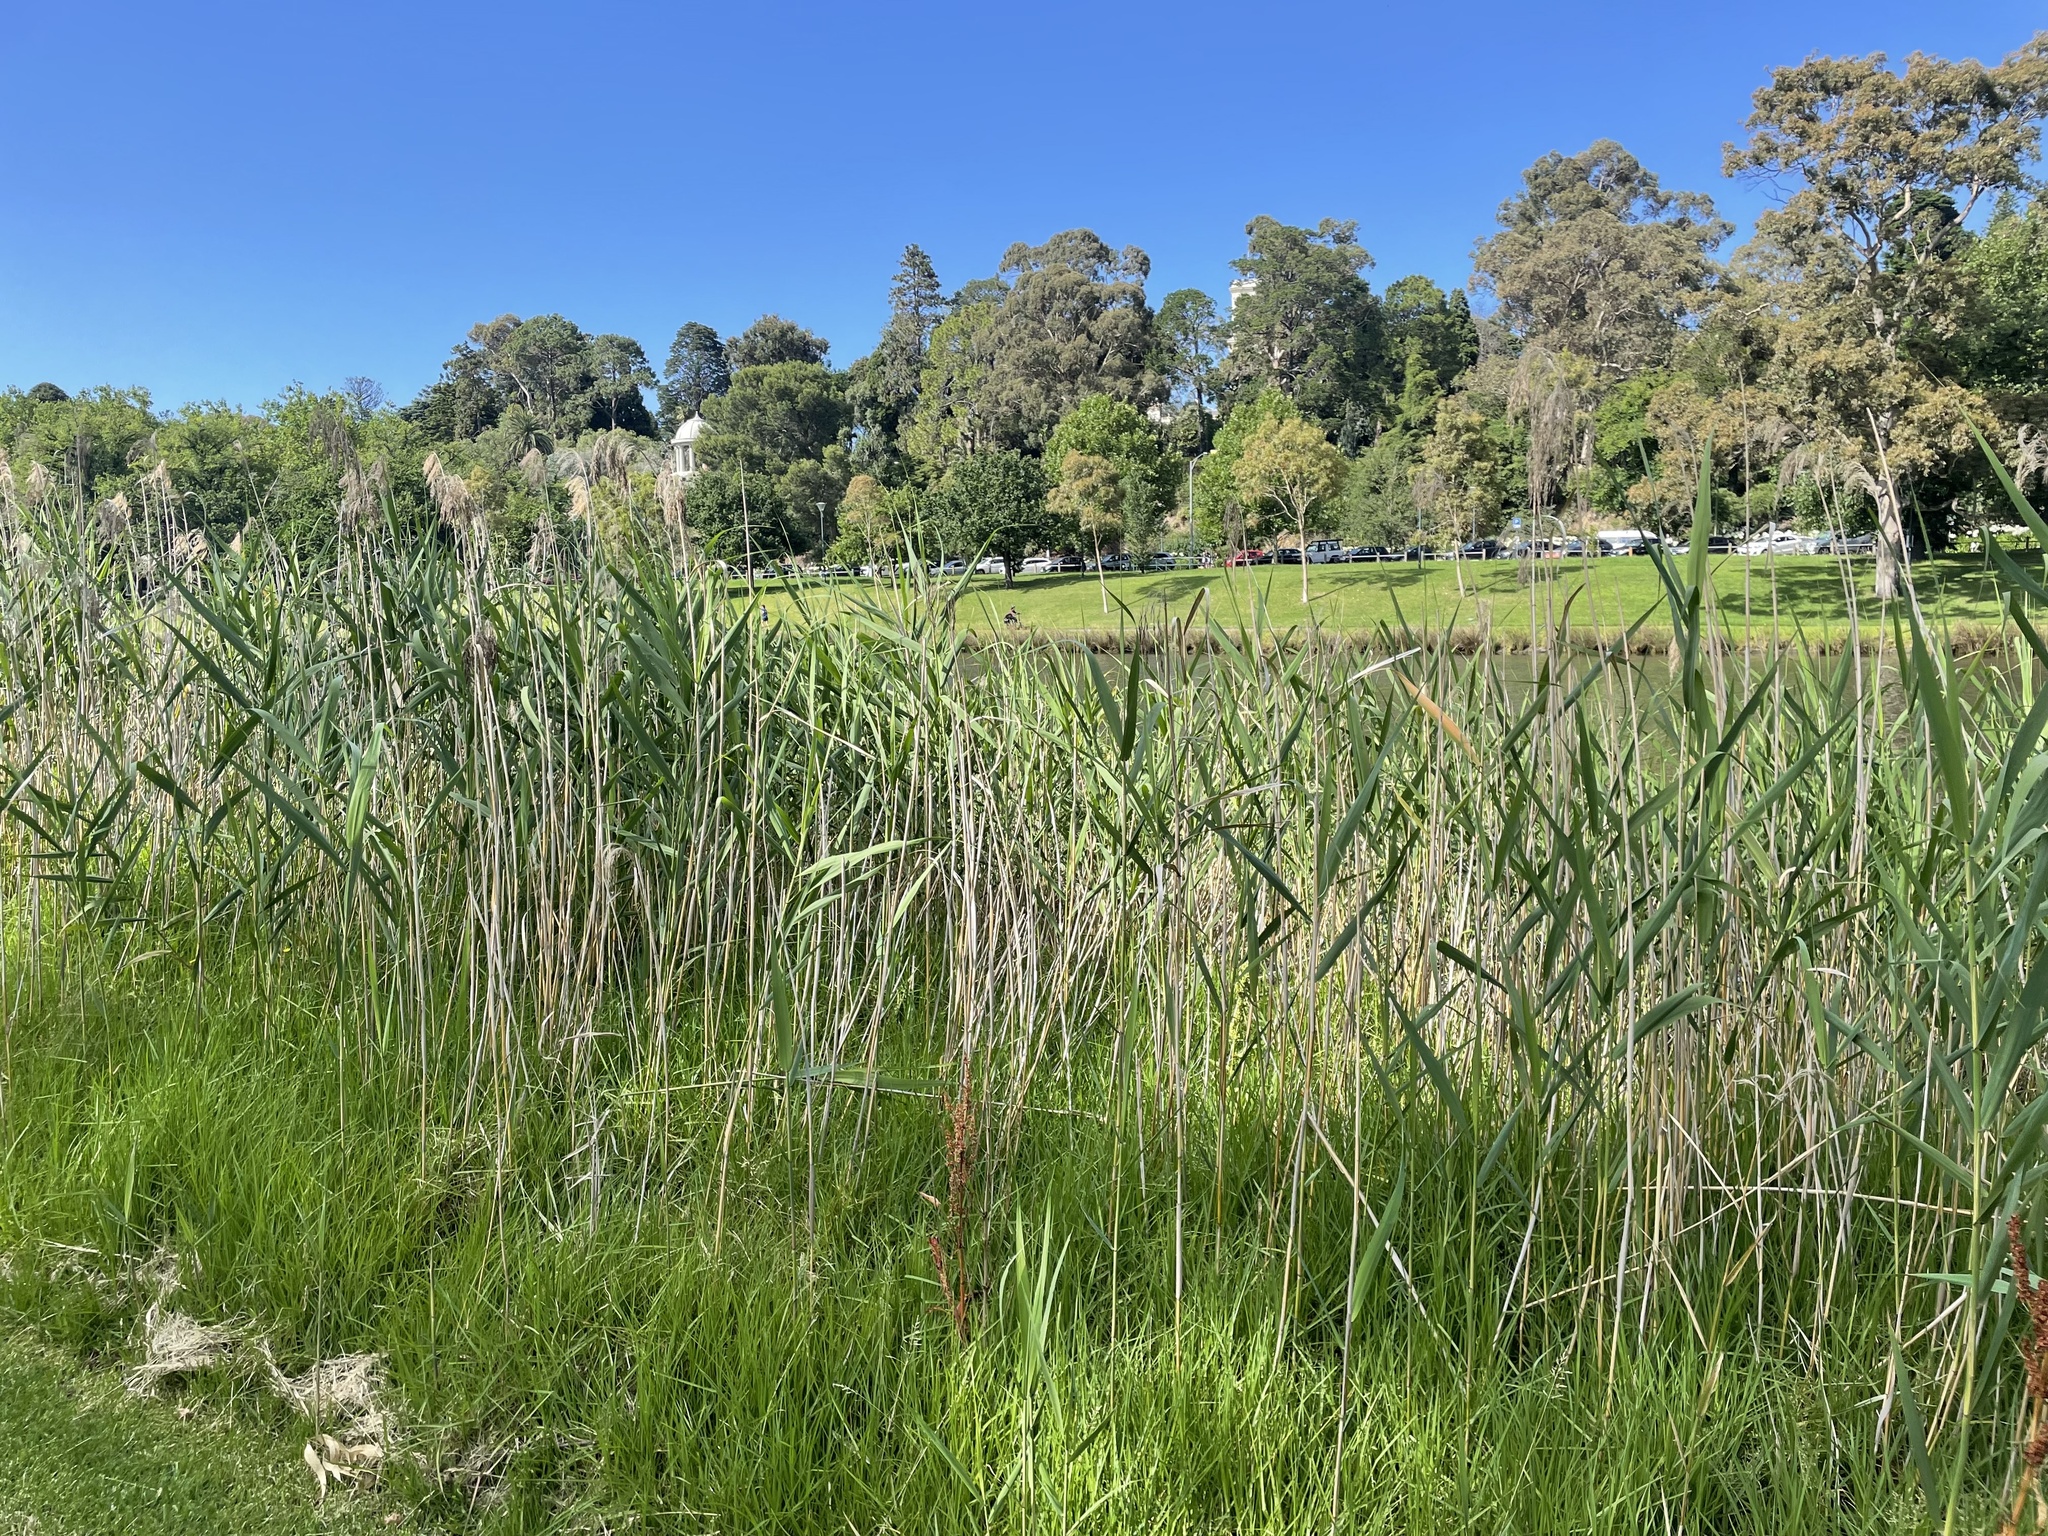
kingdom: Plantae
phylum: Tracheophyta
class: Liliopsida
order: Poales
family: Poaceae
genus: Phragmites
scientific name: Phragmites australis
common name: Common reed
